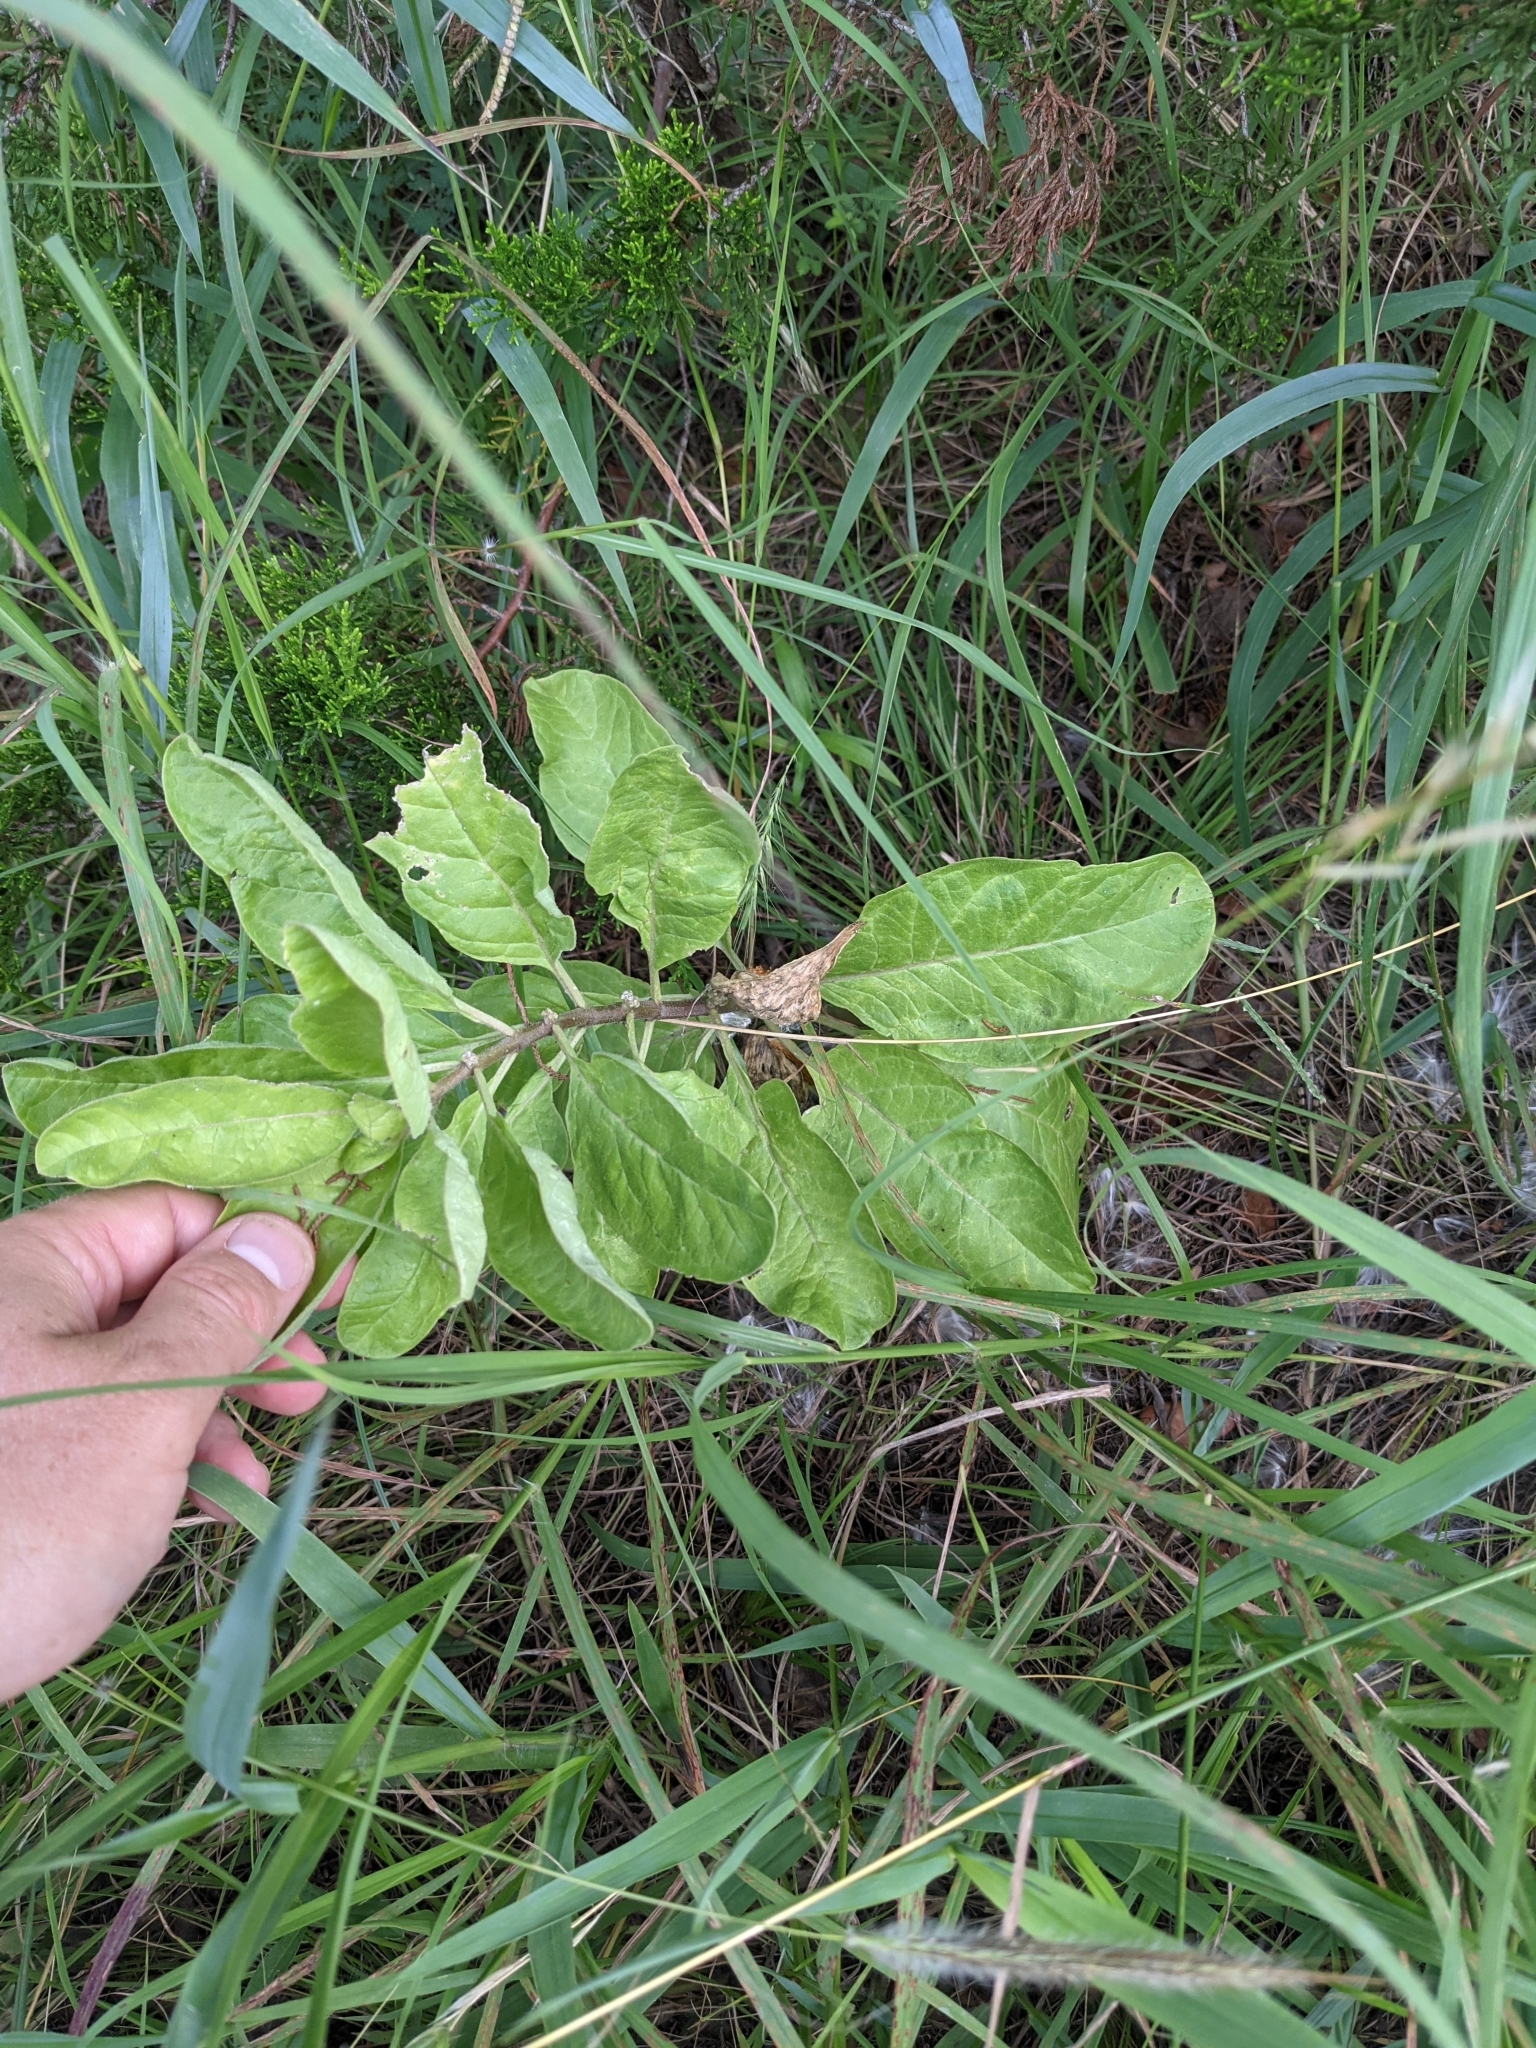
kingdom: Plantae
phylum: Tracheophyta
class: Magnoliopsida
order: Gentianales
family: Apocynaceae
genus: Asclepias
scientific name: Asclepias oenotheroides
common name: Zizotes milkweed
